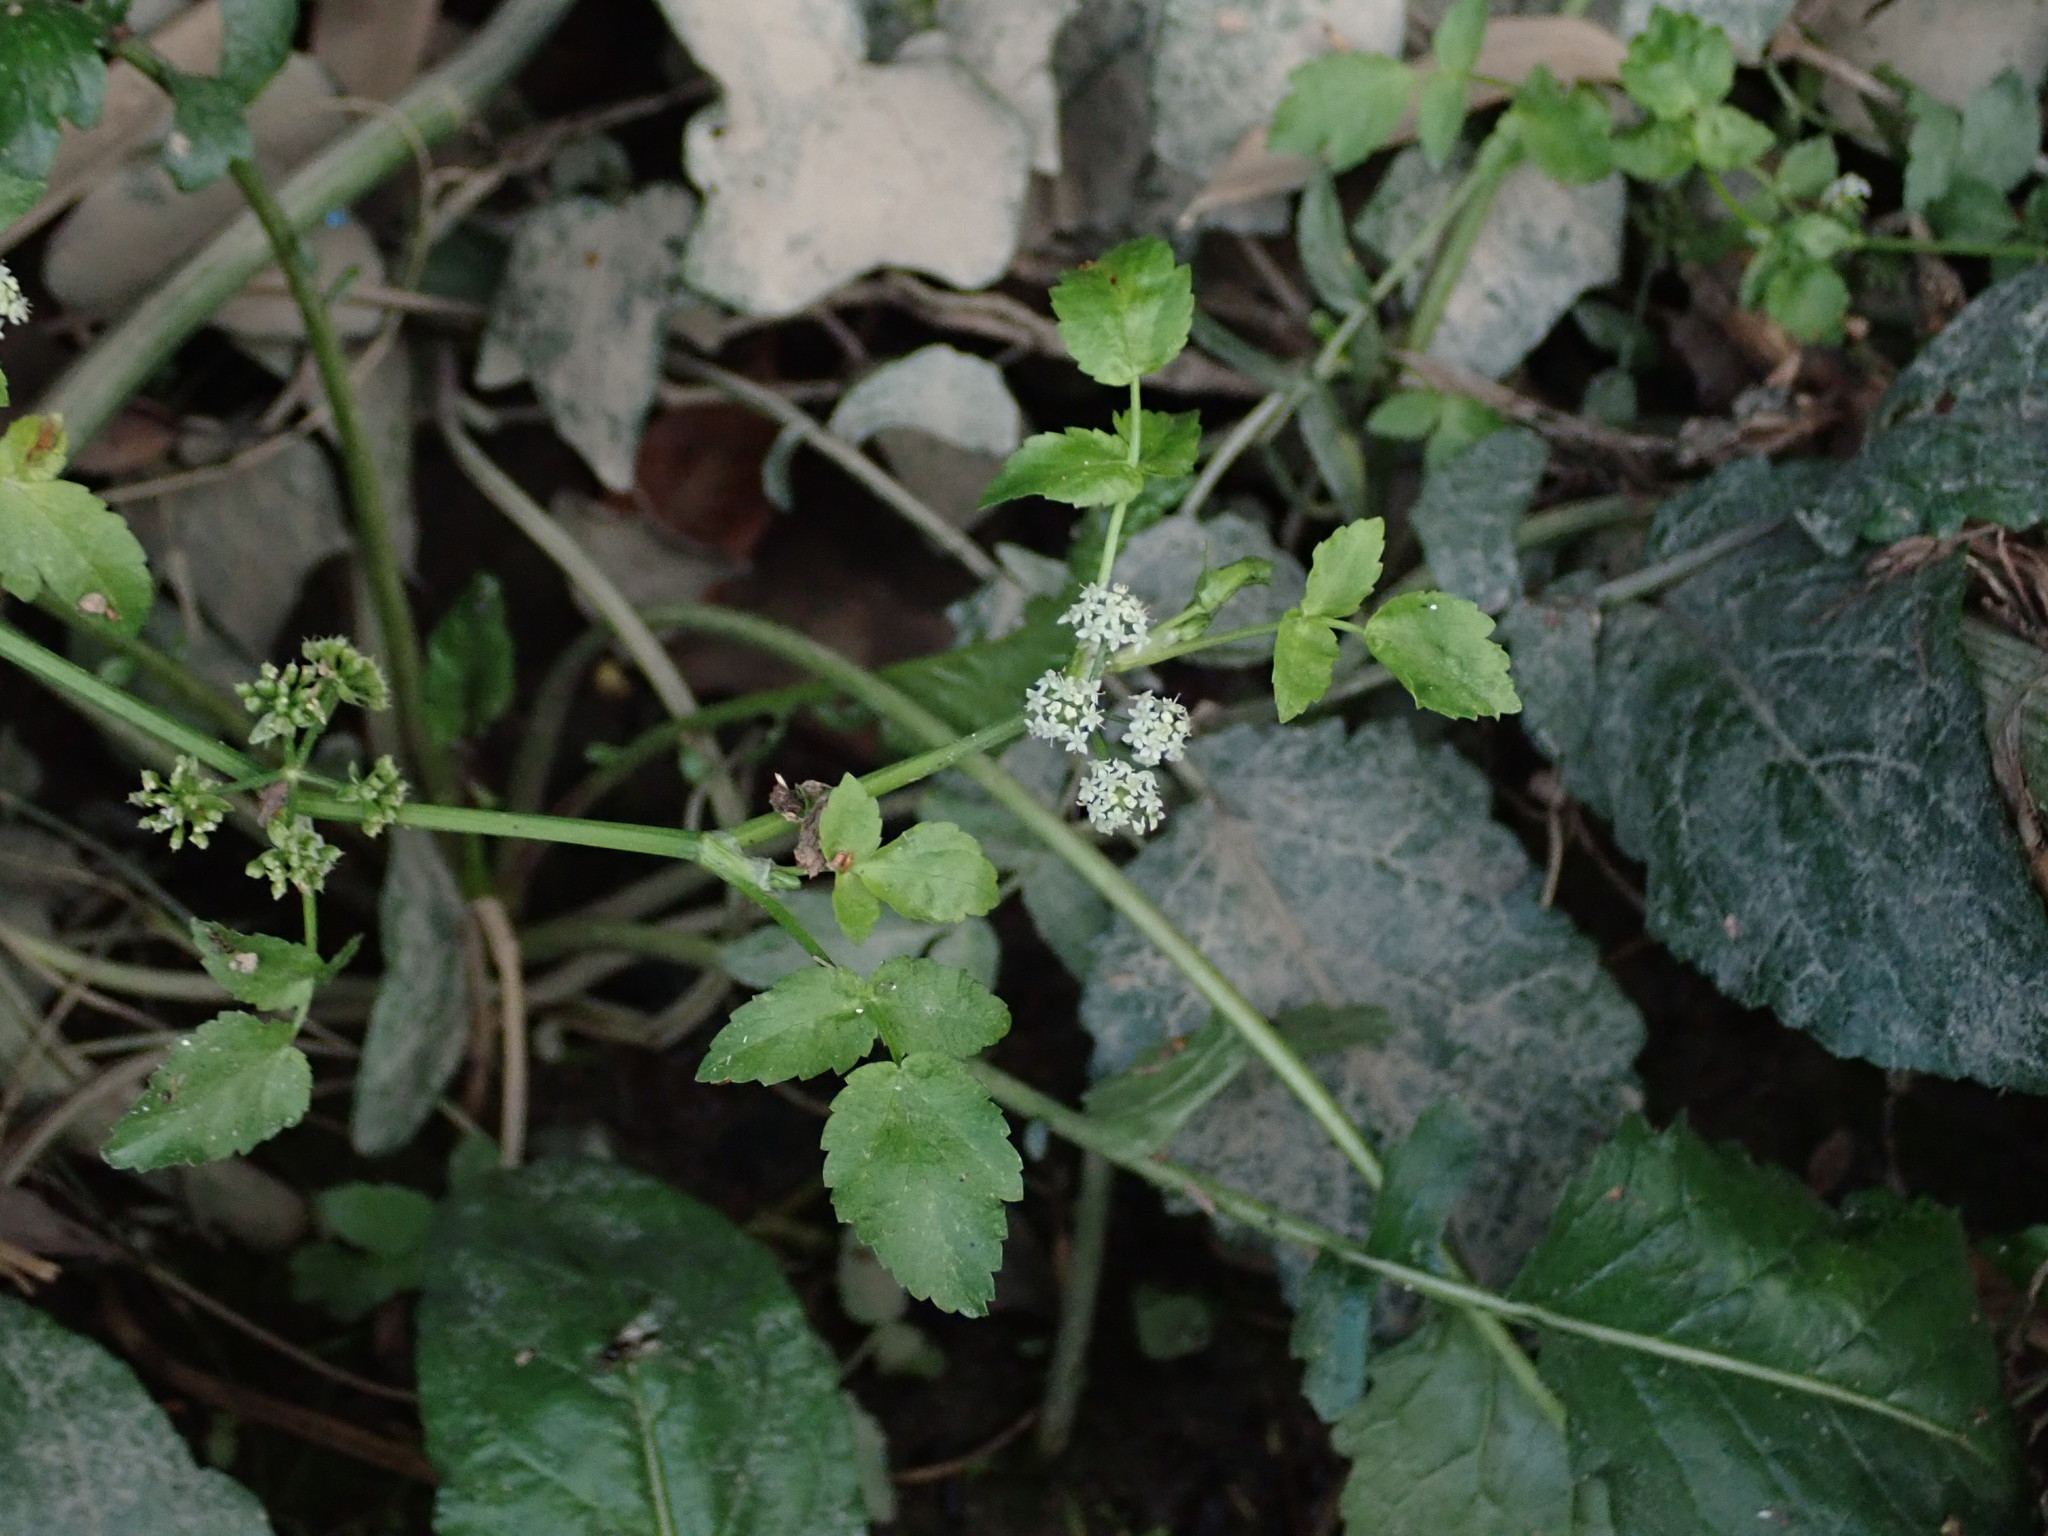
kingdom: Plantae
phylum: Tracheophyta
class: Magnoliopsida
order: Apiales
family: Apiaceae
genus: Helosciadium
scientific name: Helosciadium nodiflorum
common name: Fool's-watercress
